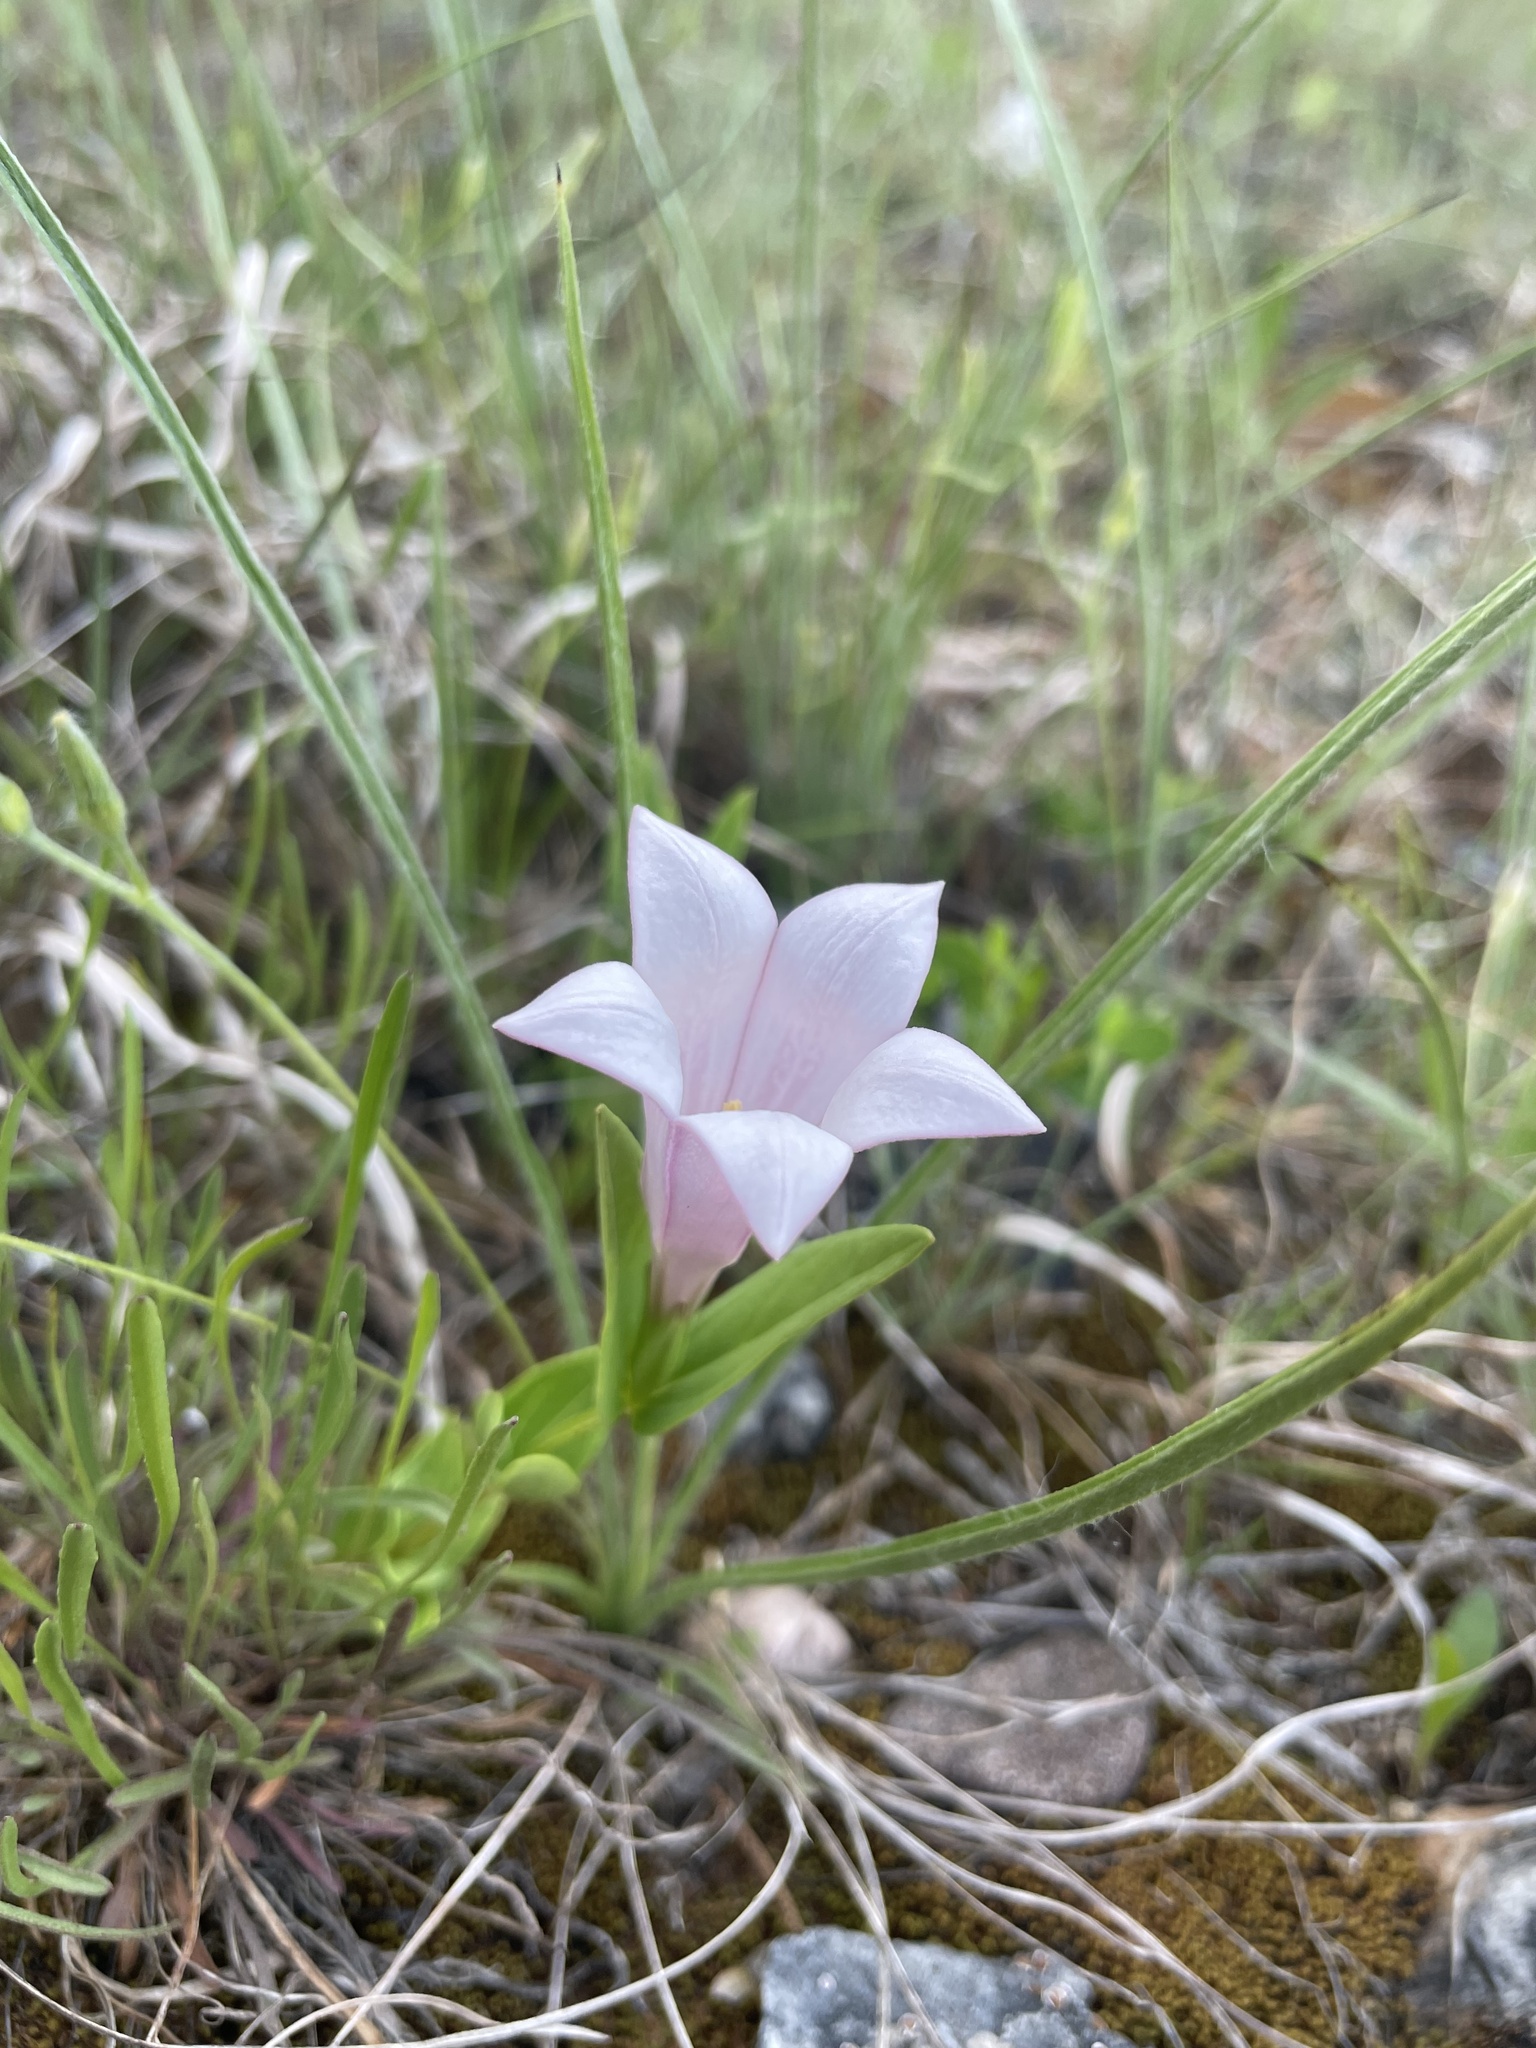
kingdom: Plantae
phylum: Tracheophyta
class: Magnoliopsida
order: Gentianales
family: Loganiaceae
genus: Spigelia
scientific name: Spigelia alabamensis
